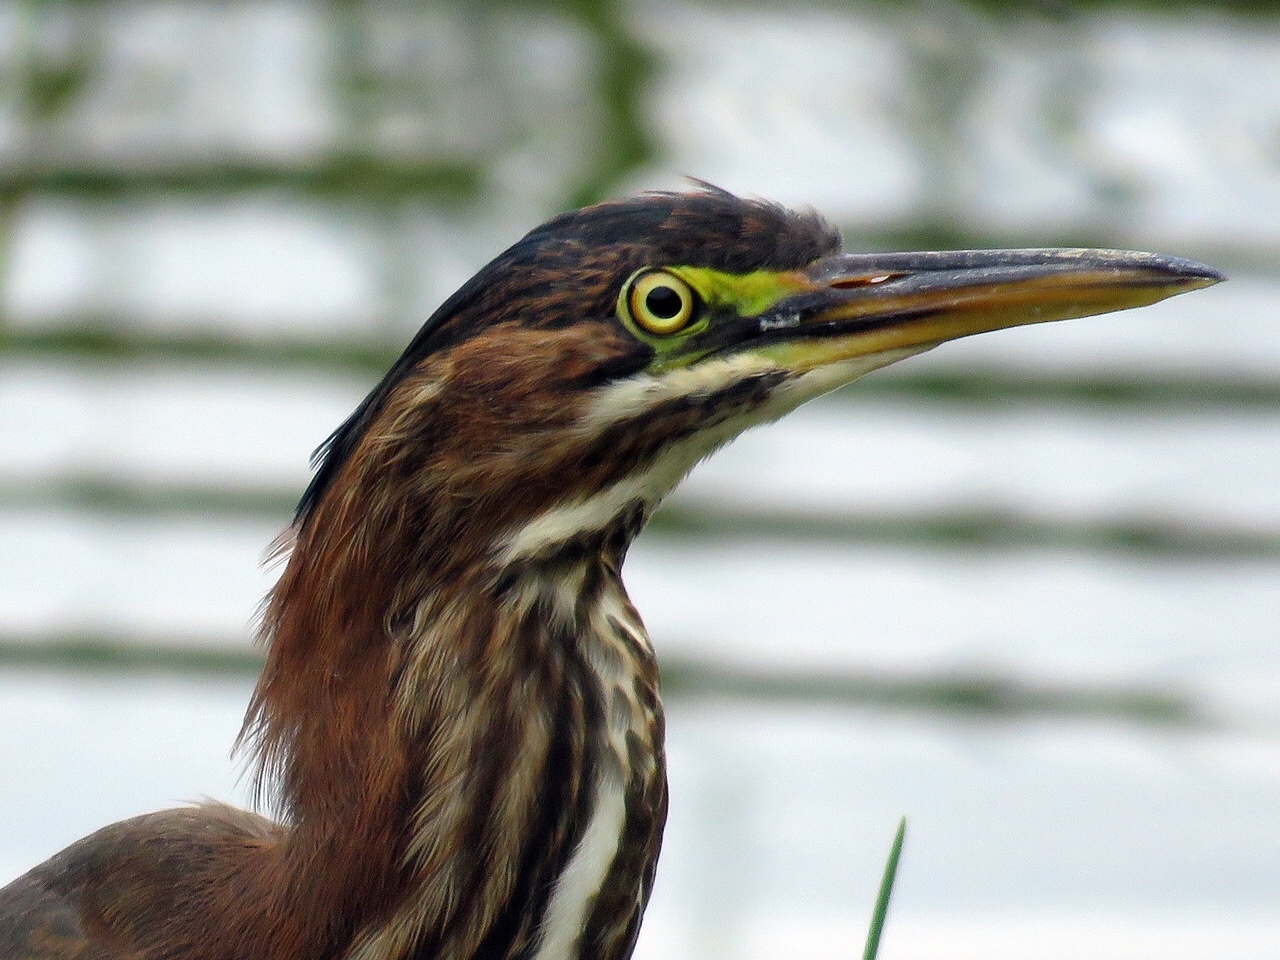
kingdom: Animalia
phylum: Chordata
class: Aves
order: Pelecaniformes
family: Ardeidae
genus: Butorides
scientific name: Butorides virescens
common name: Green heron
